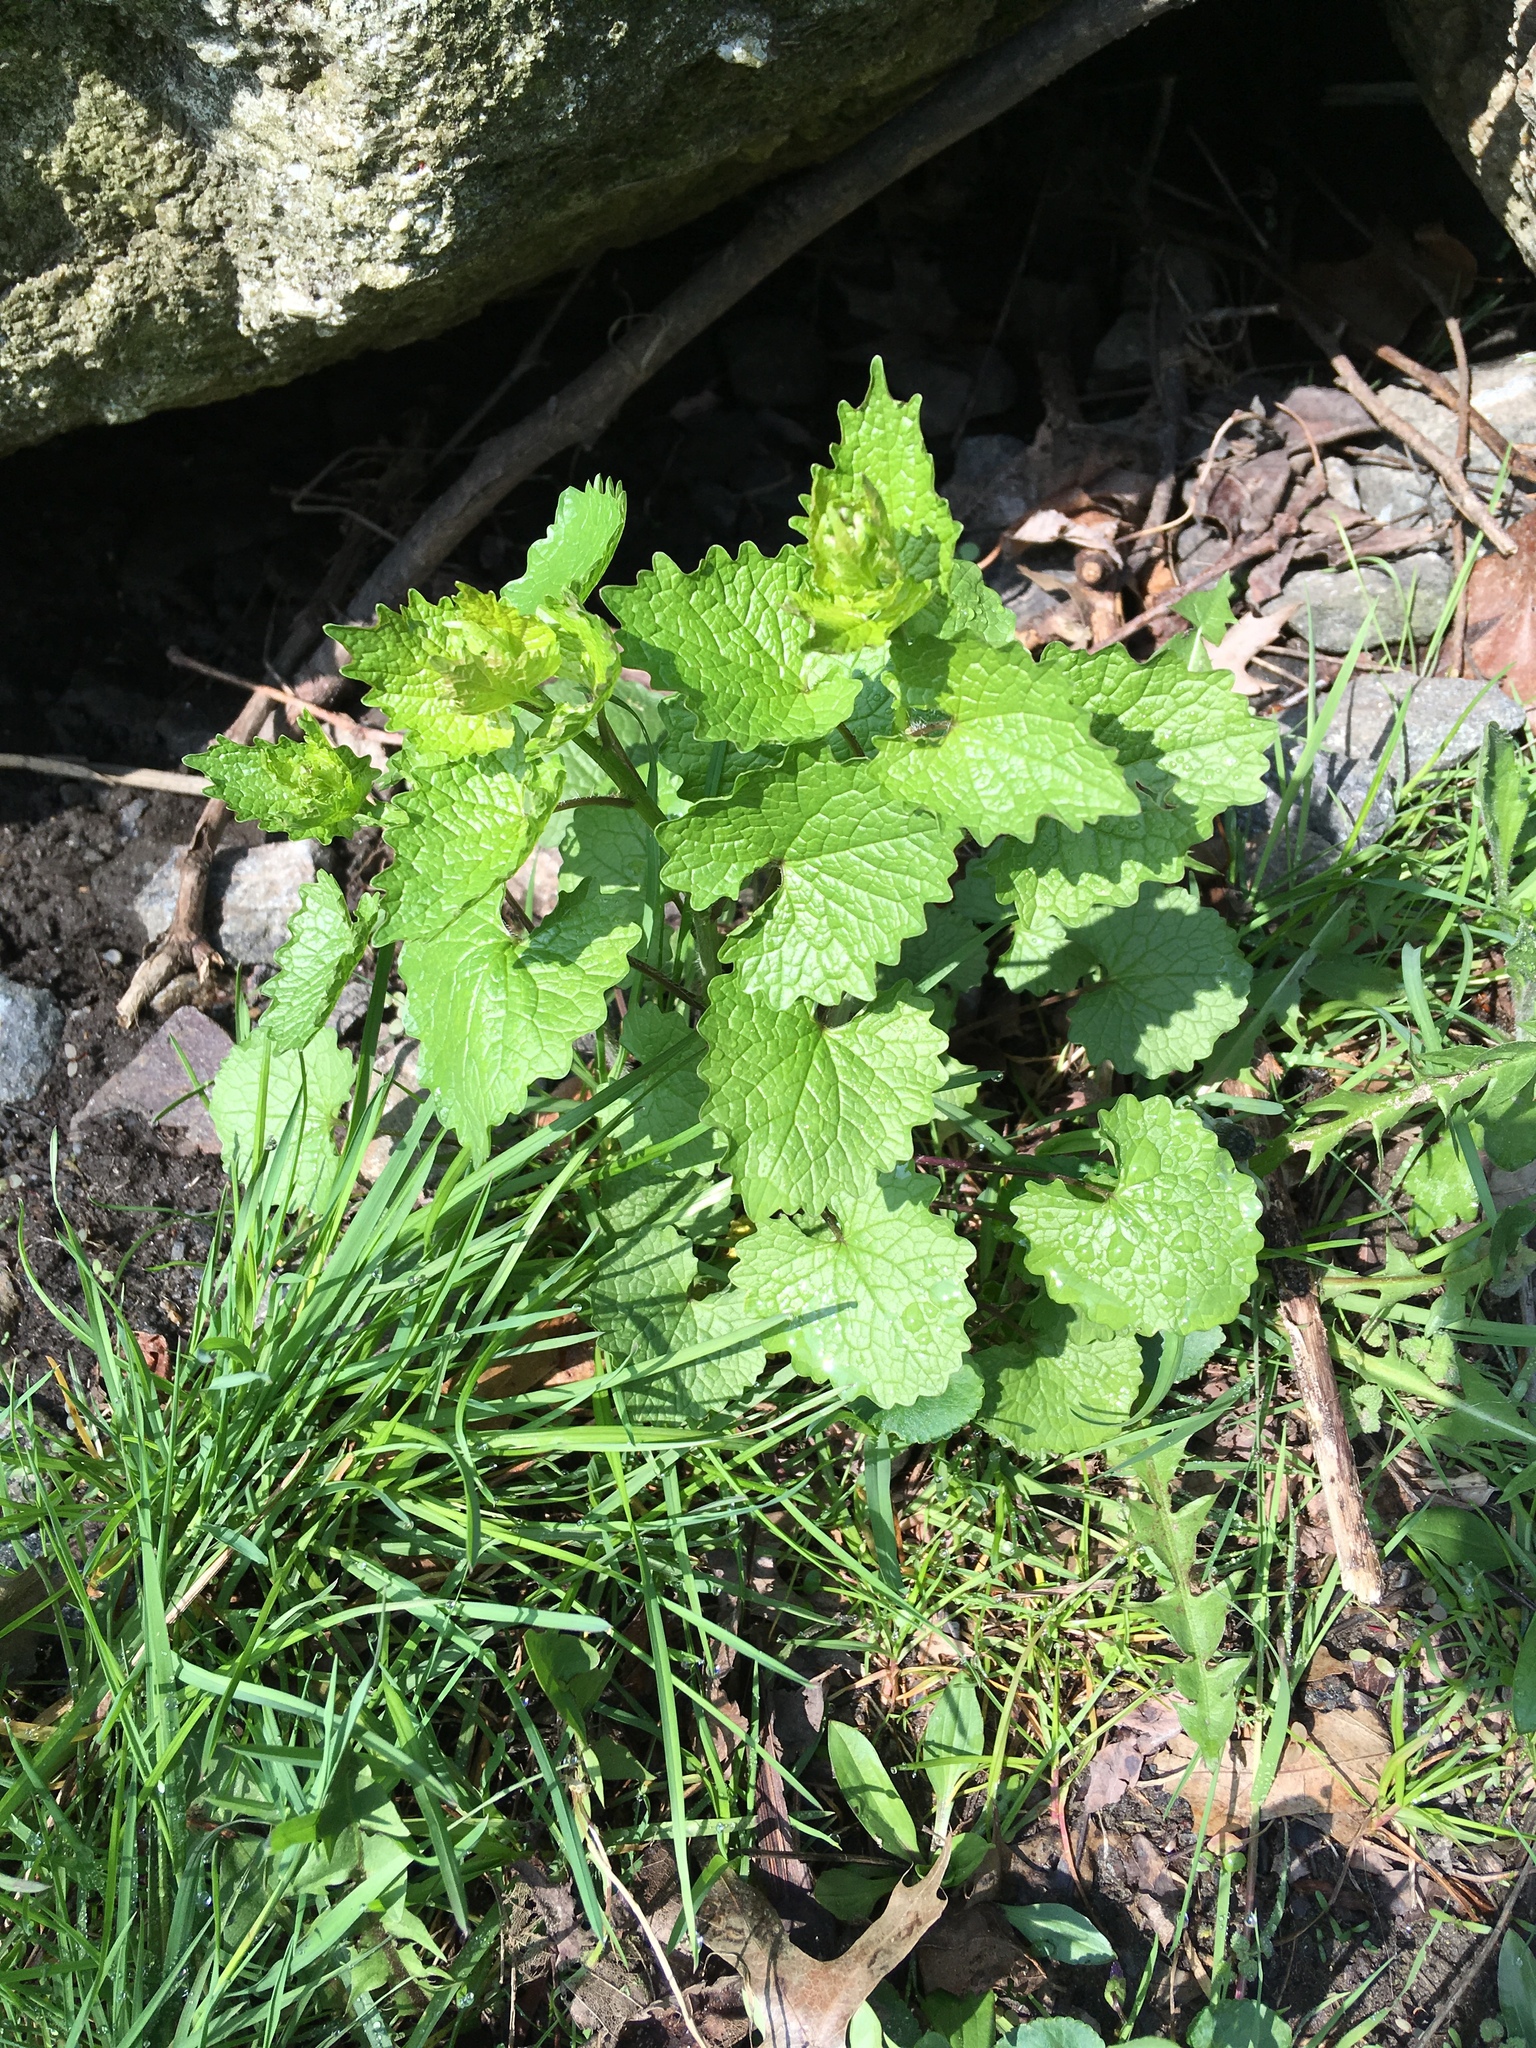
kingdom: Plantae
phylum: Tracheophyta
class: Magnoliopsida
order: Brassicales
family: Brassicaceae
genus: Alliaria
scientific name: Alliaria petiolata
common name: Garlic mustard
